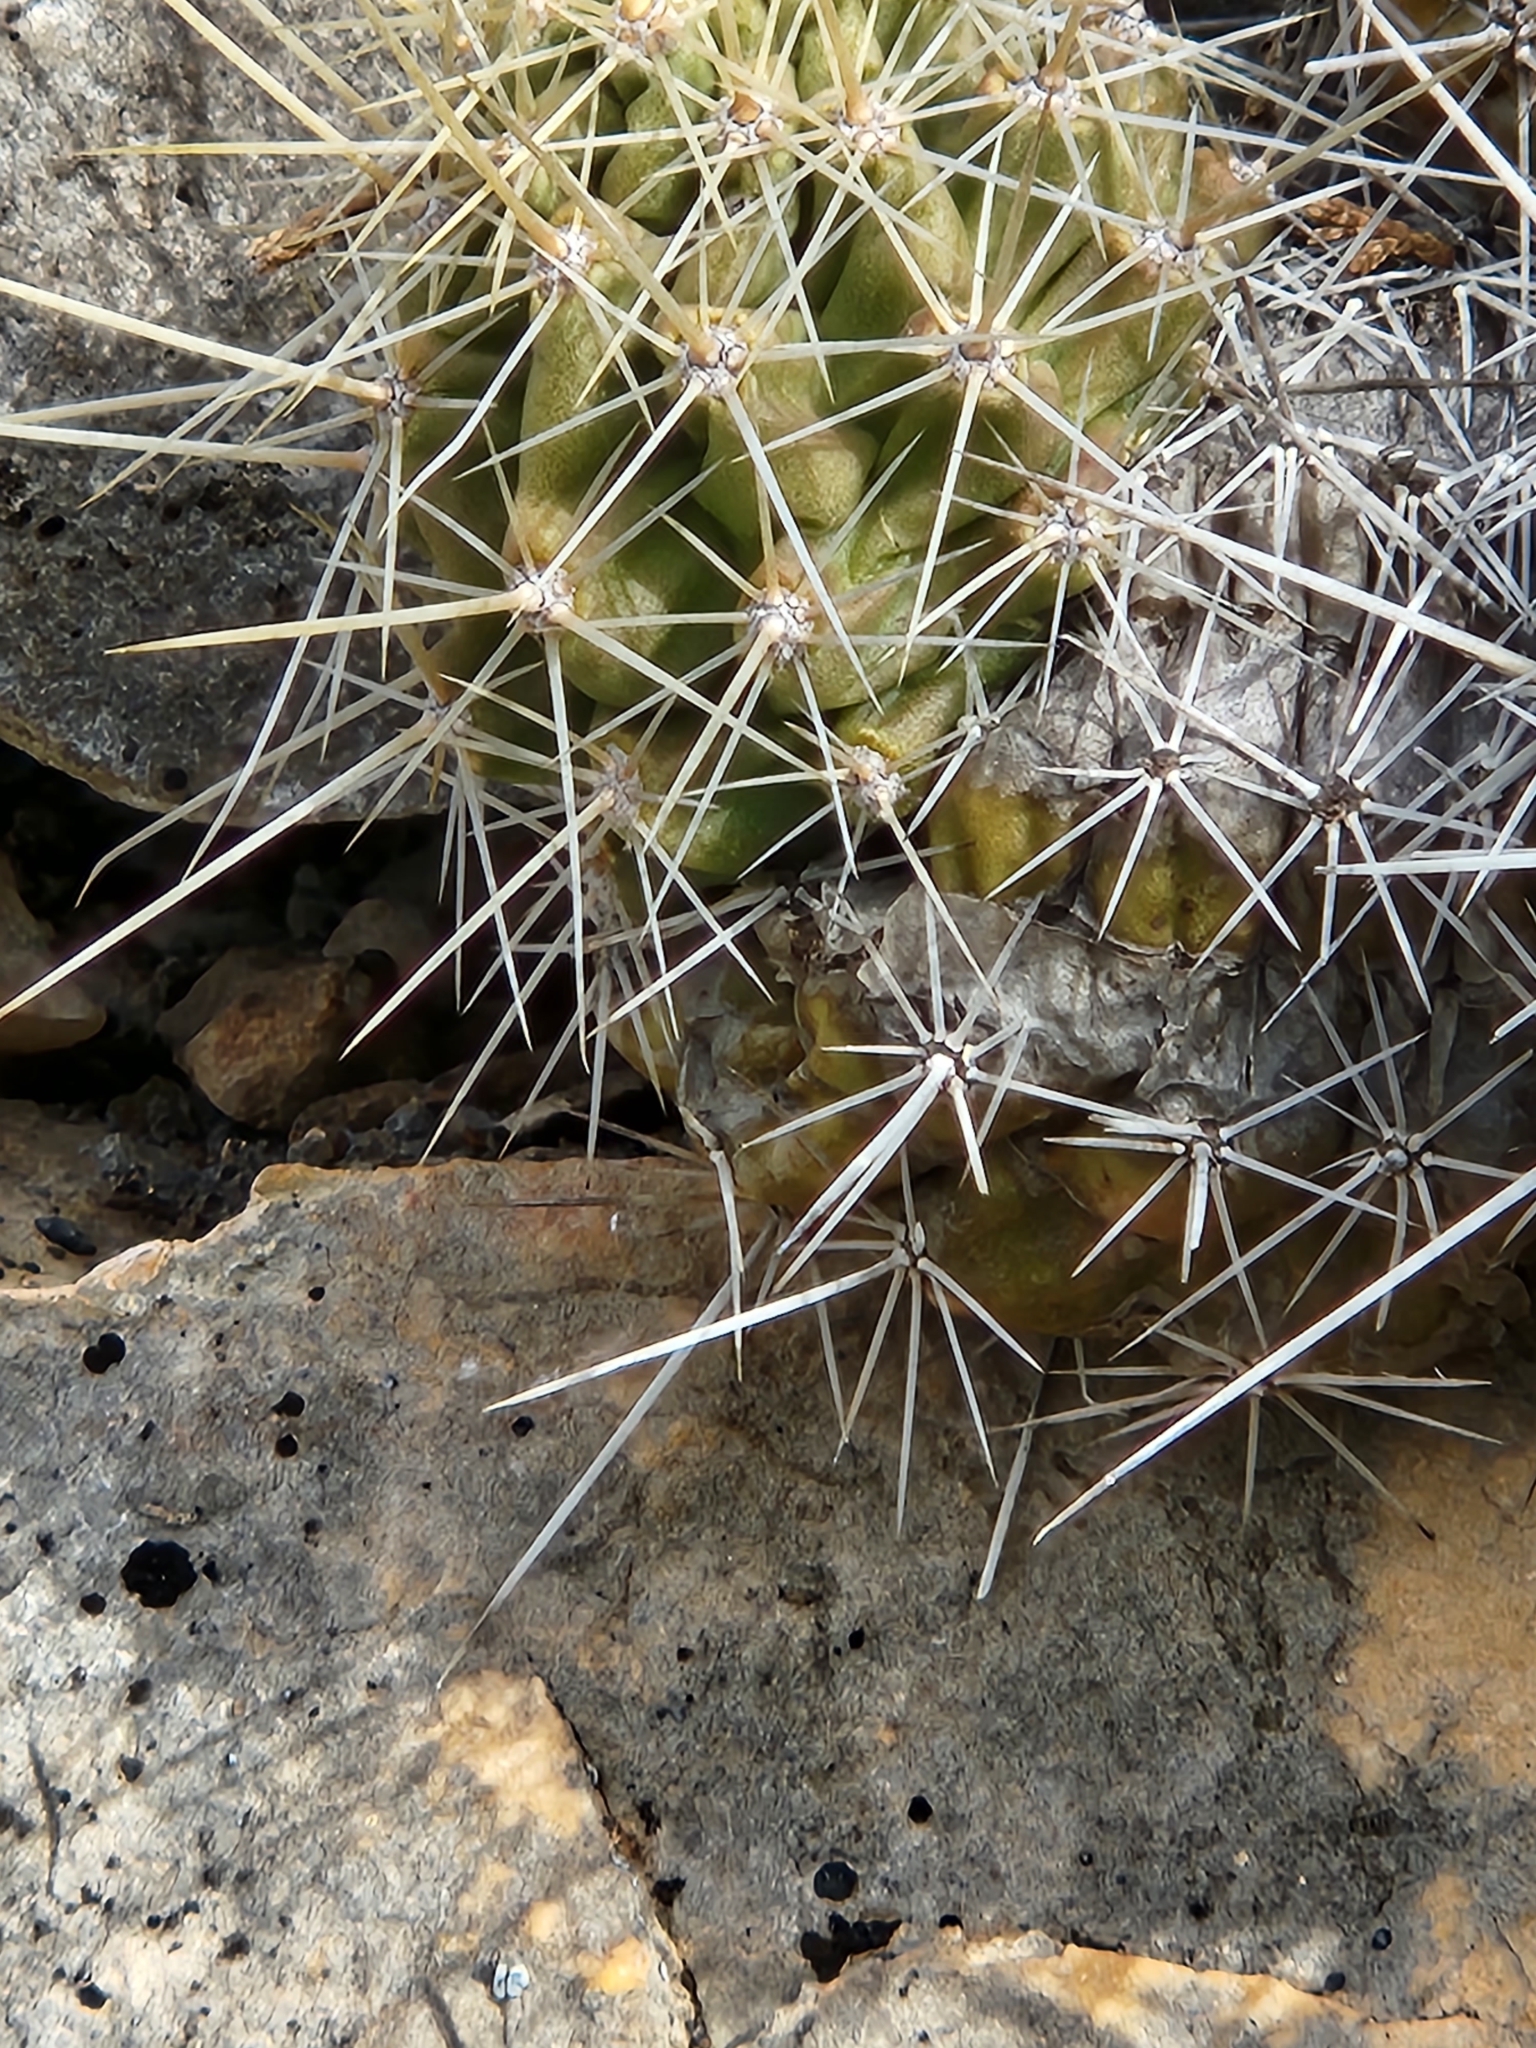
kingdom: Plantae
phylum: Tracheophyta
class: Magnoliopsida
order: Caryophyllales
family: Cactaceae
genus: Echinocereus
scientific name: Echinocereus enneacanthus
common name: Pitaya
